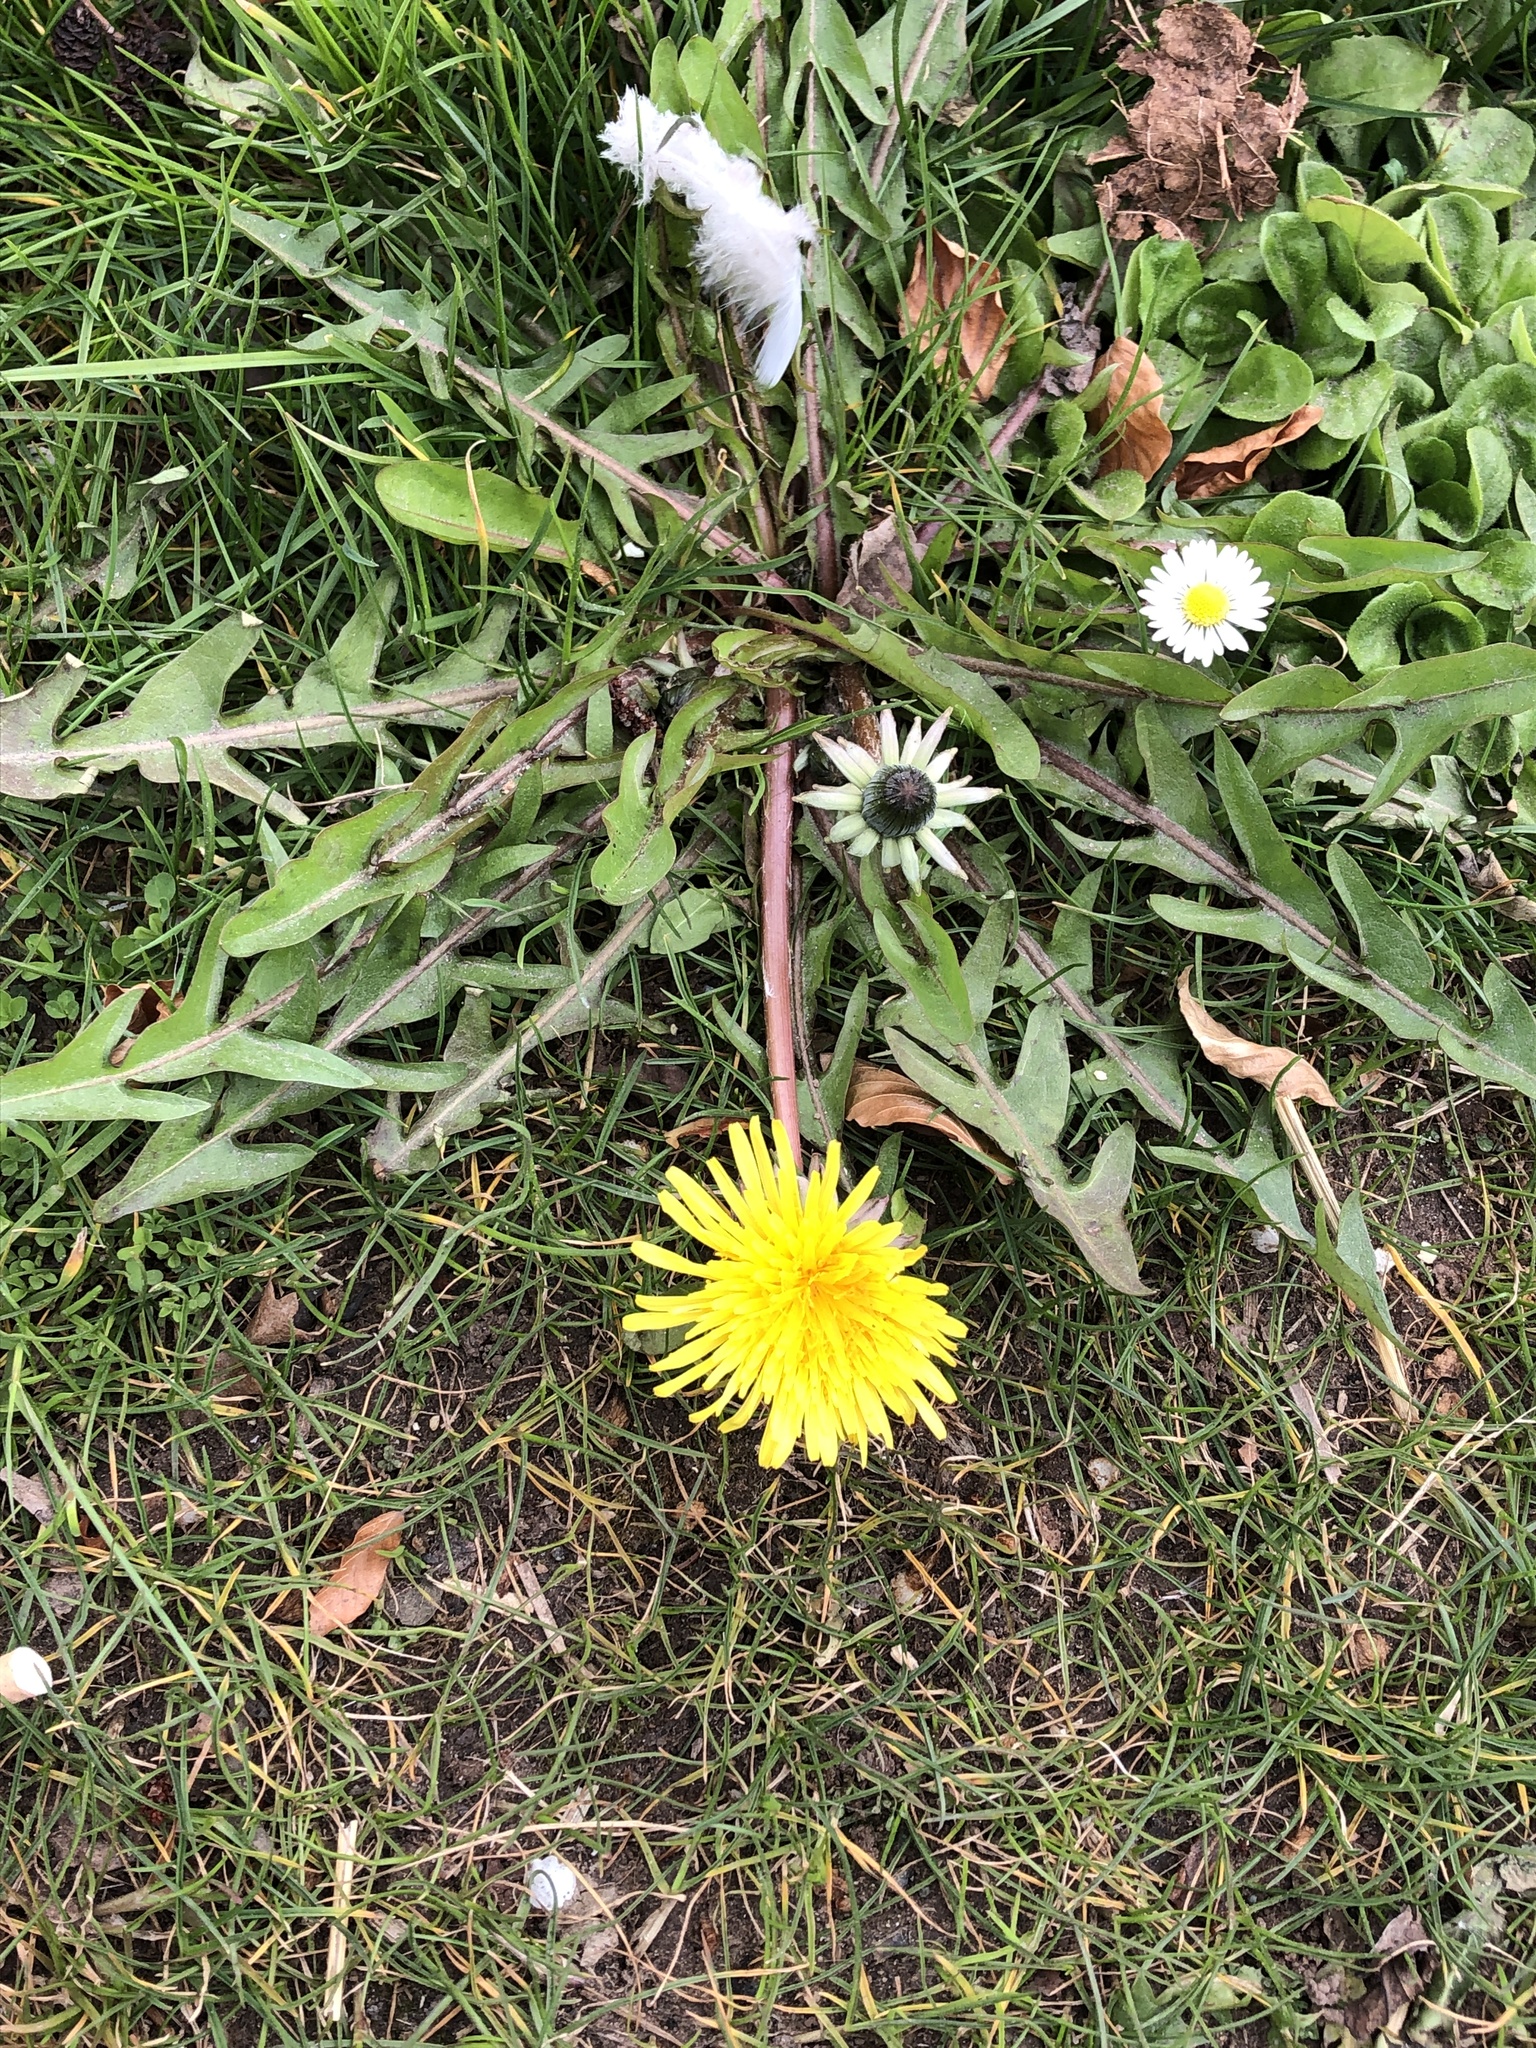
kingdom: Plantae
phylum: Tracheophyta
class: Magnoliopsida
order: Asterales
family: Asteraceae
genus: Taraxacum
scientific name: Taraxacum
